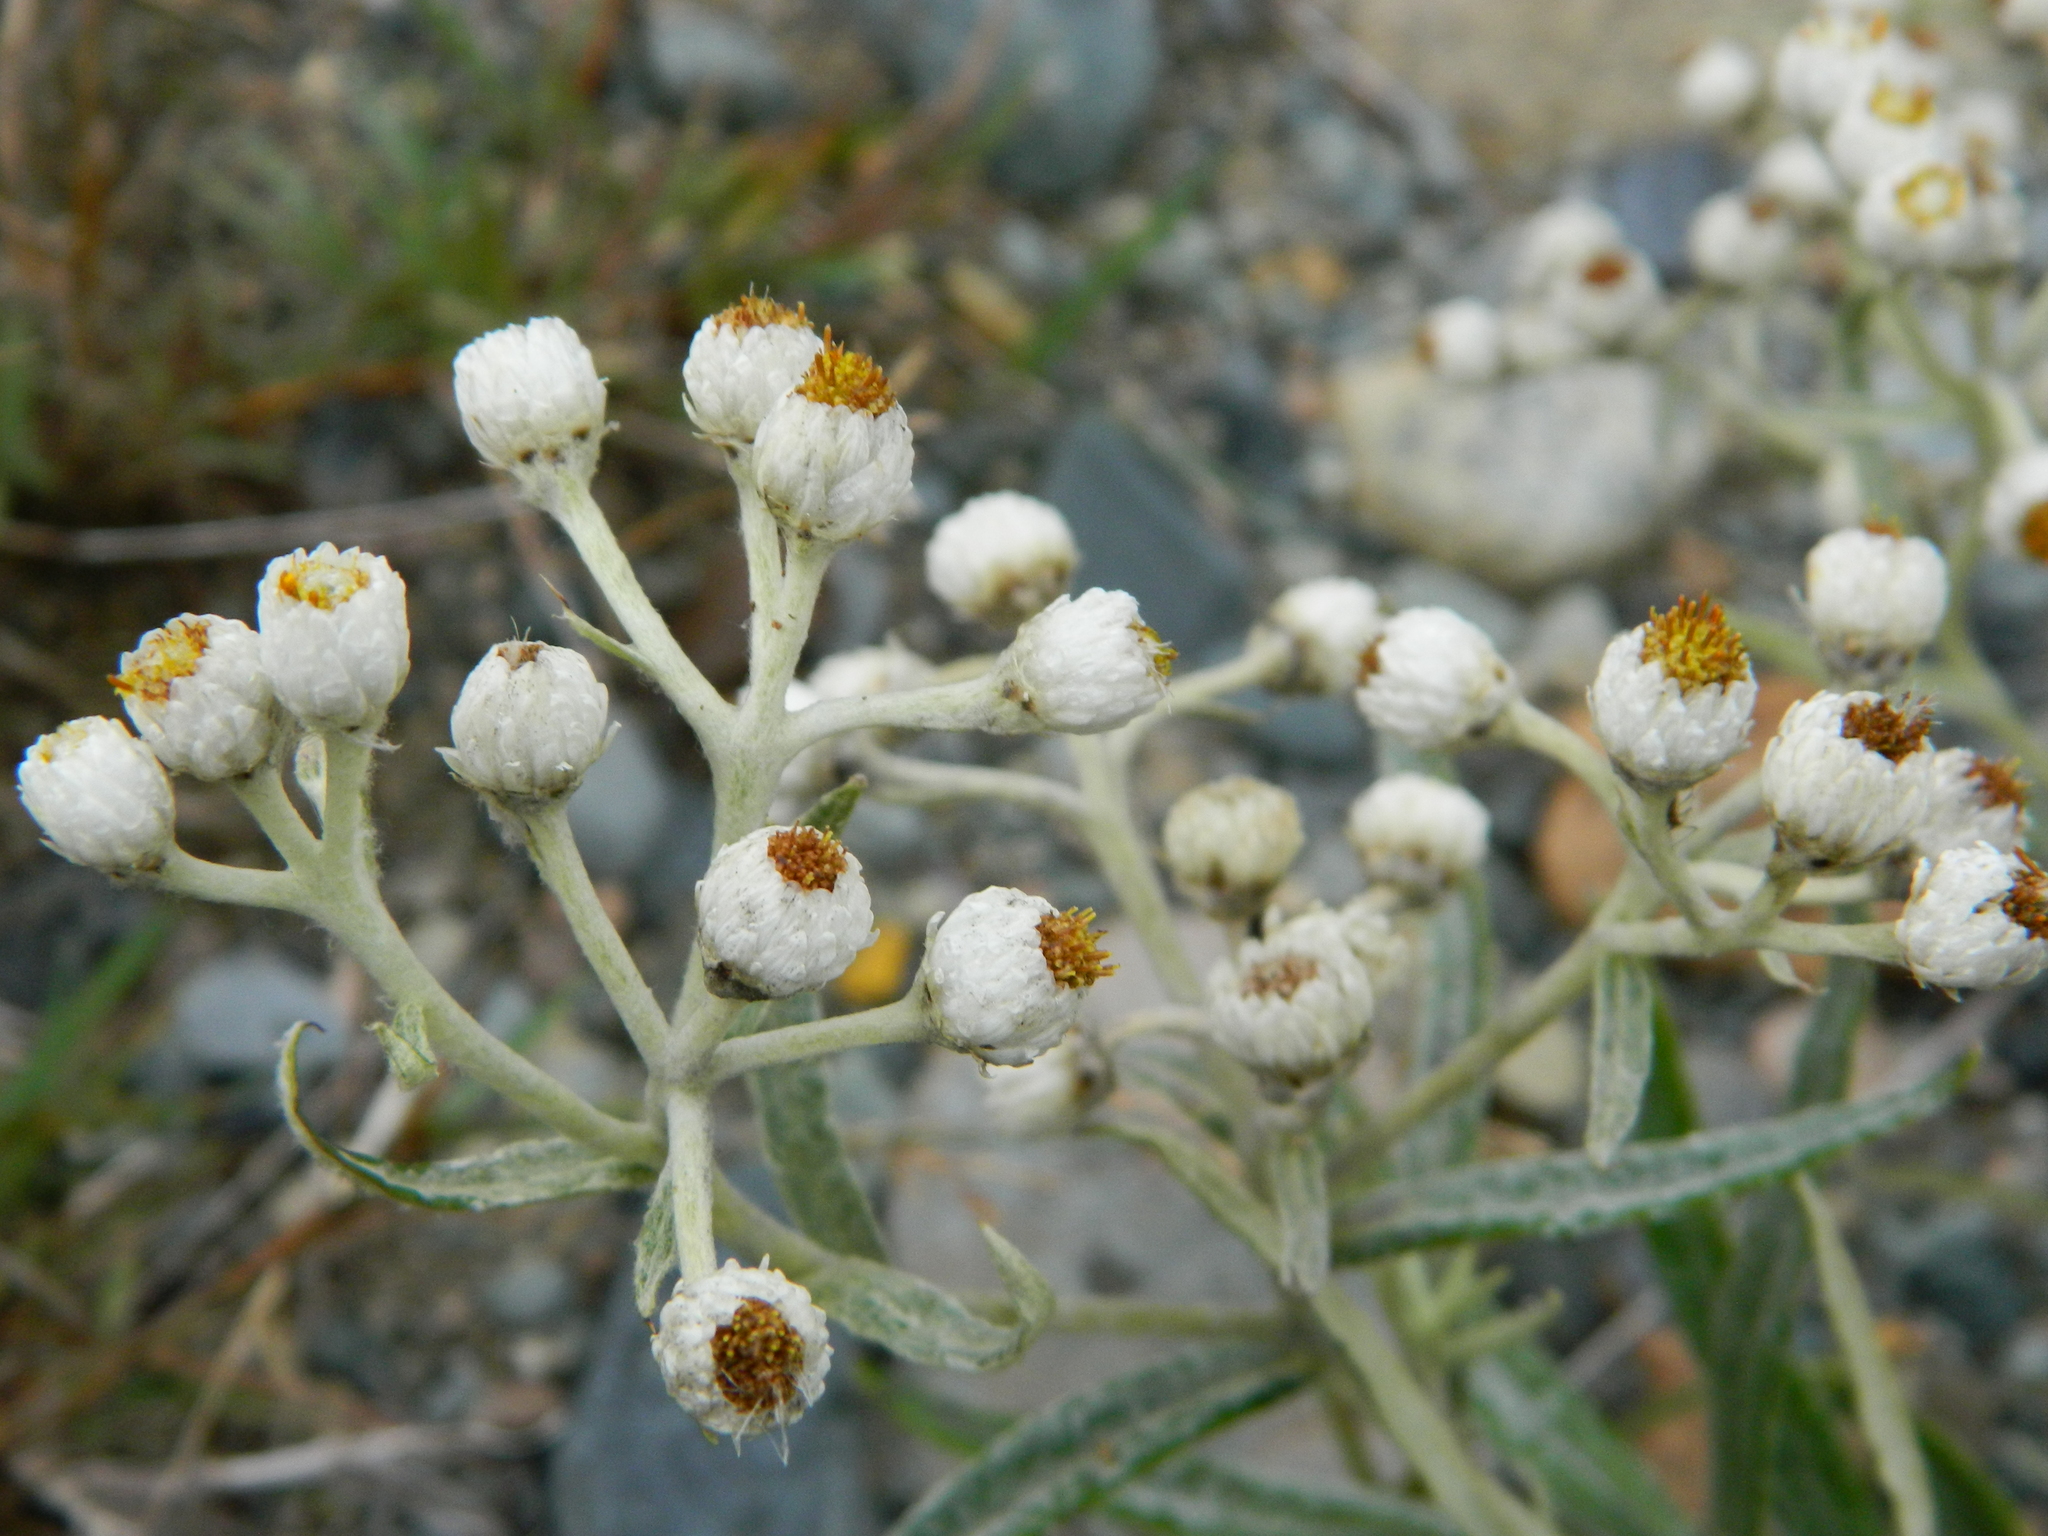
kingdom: Plantae
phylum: Tracheophyta
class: Magnoliopsida
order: Asterales
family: Asteraceae
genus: Anaphalis
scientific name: Anaphalis margaritacea
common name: Pearly everlasting
